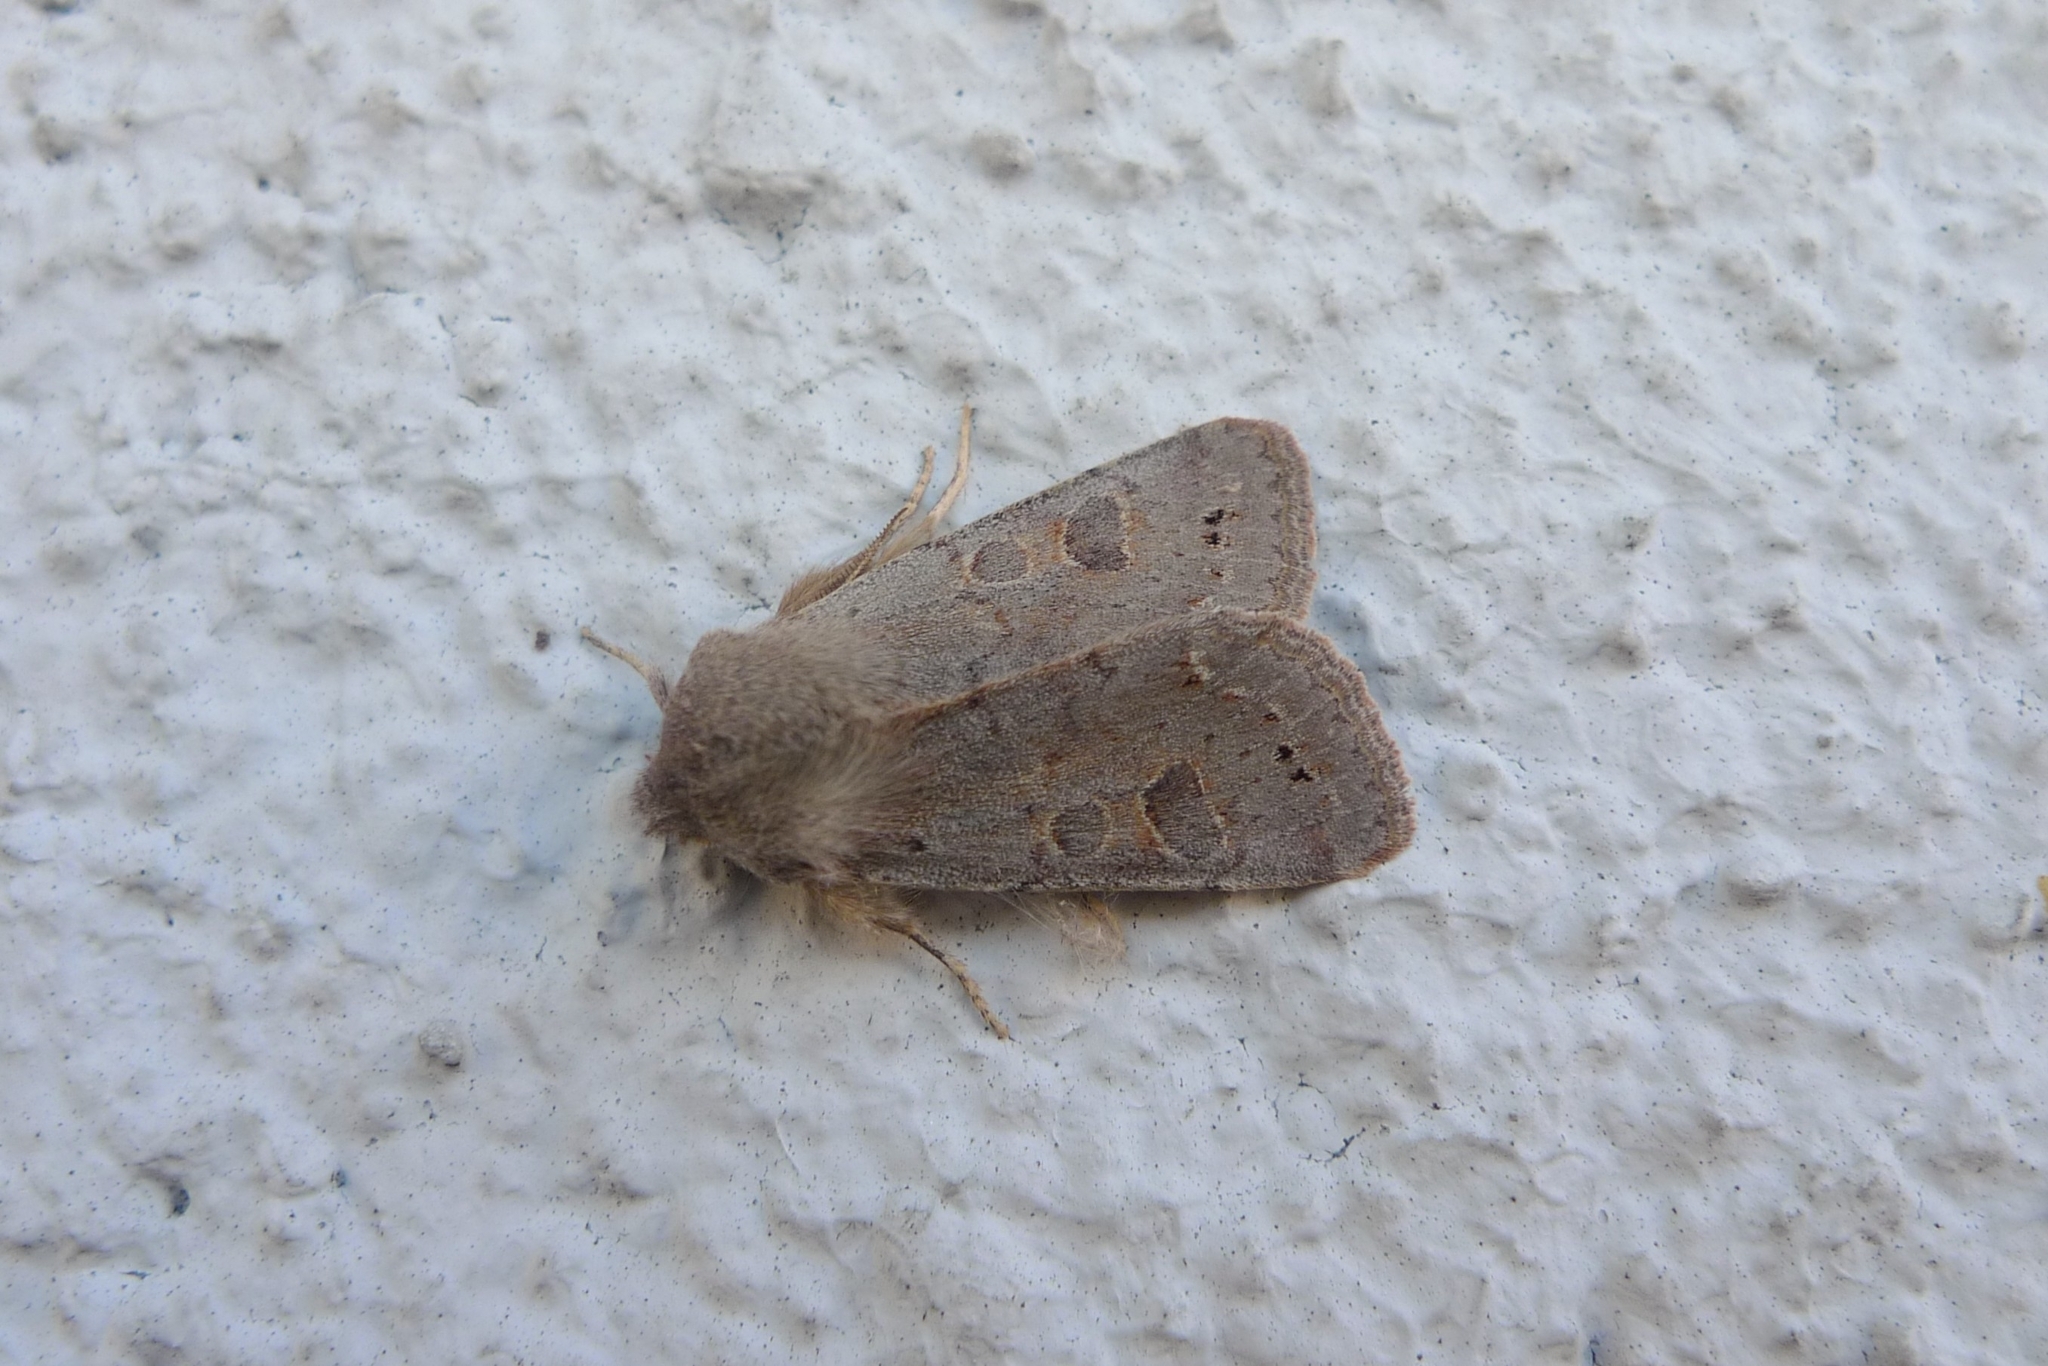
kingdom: Animalia
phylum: Arthropoda
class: Insecta
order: Lepidoptera
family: Noctuidae
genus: Orthosia
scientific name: Orthosia populeti
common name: Lead-coloured drab
